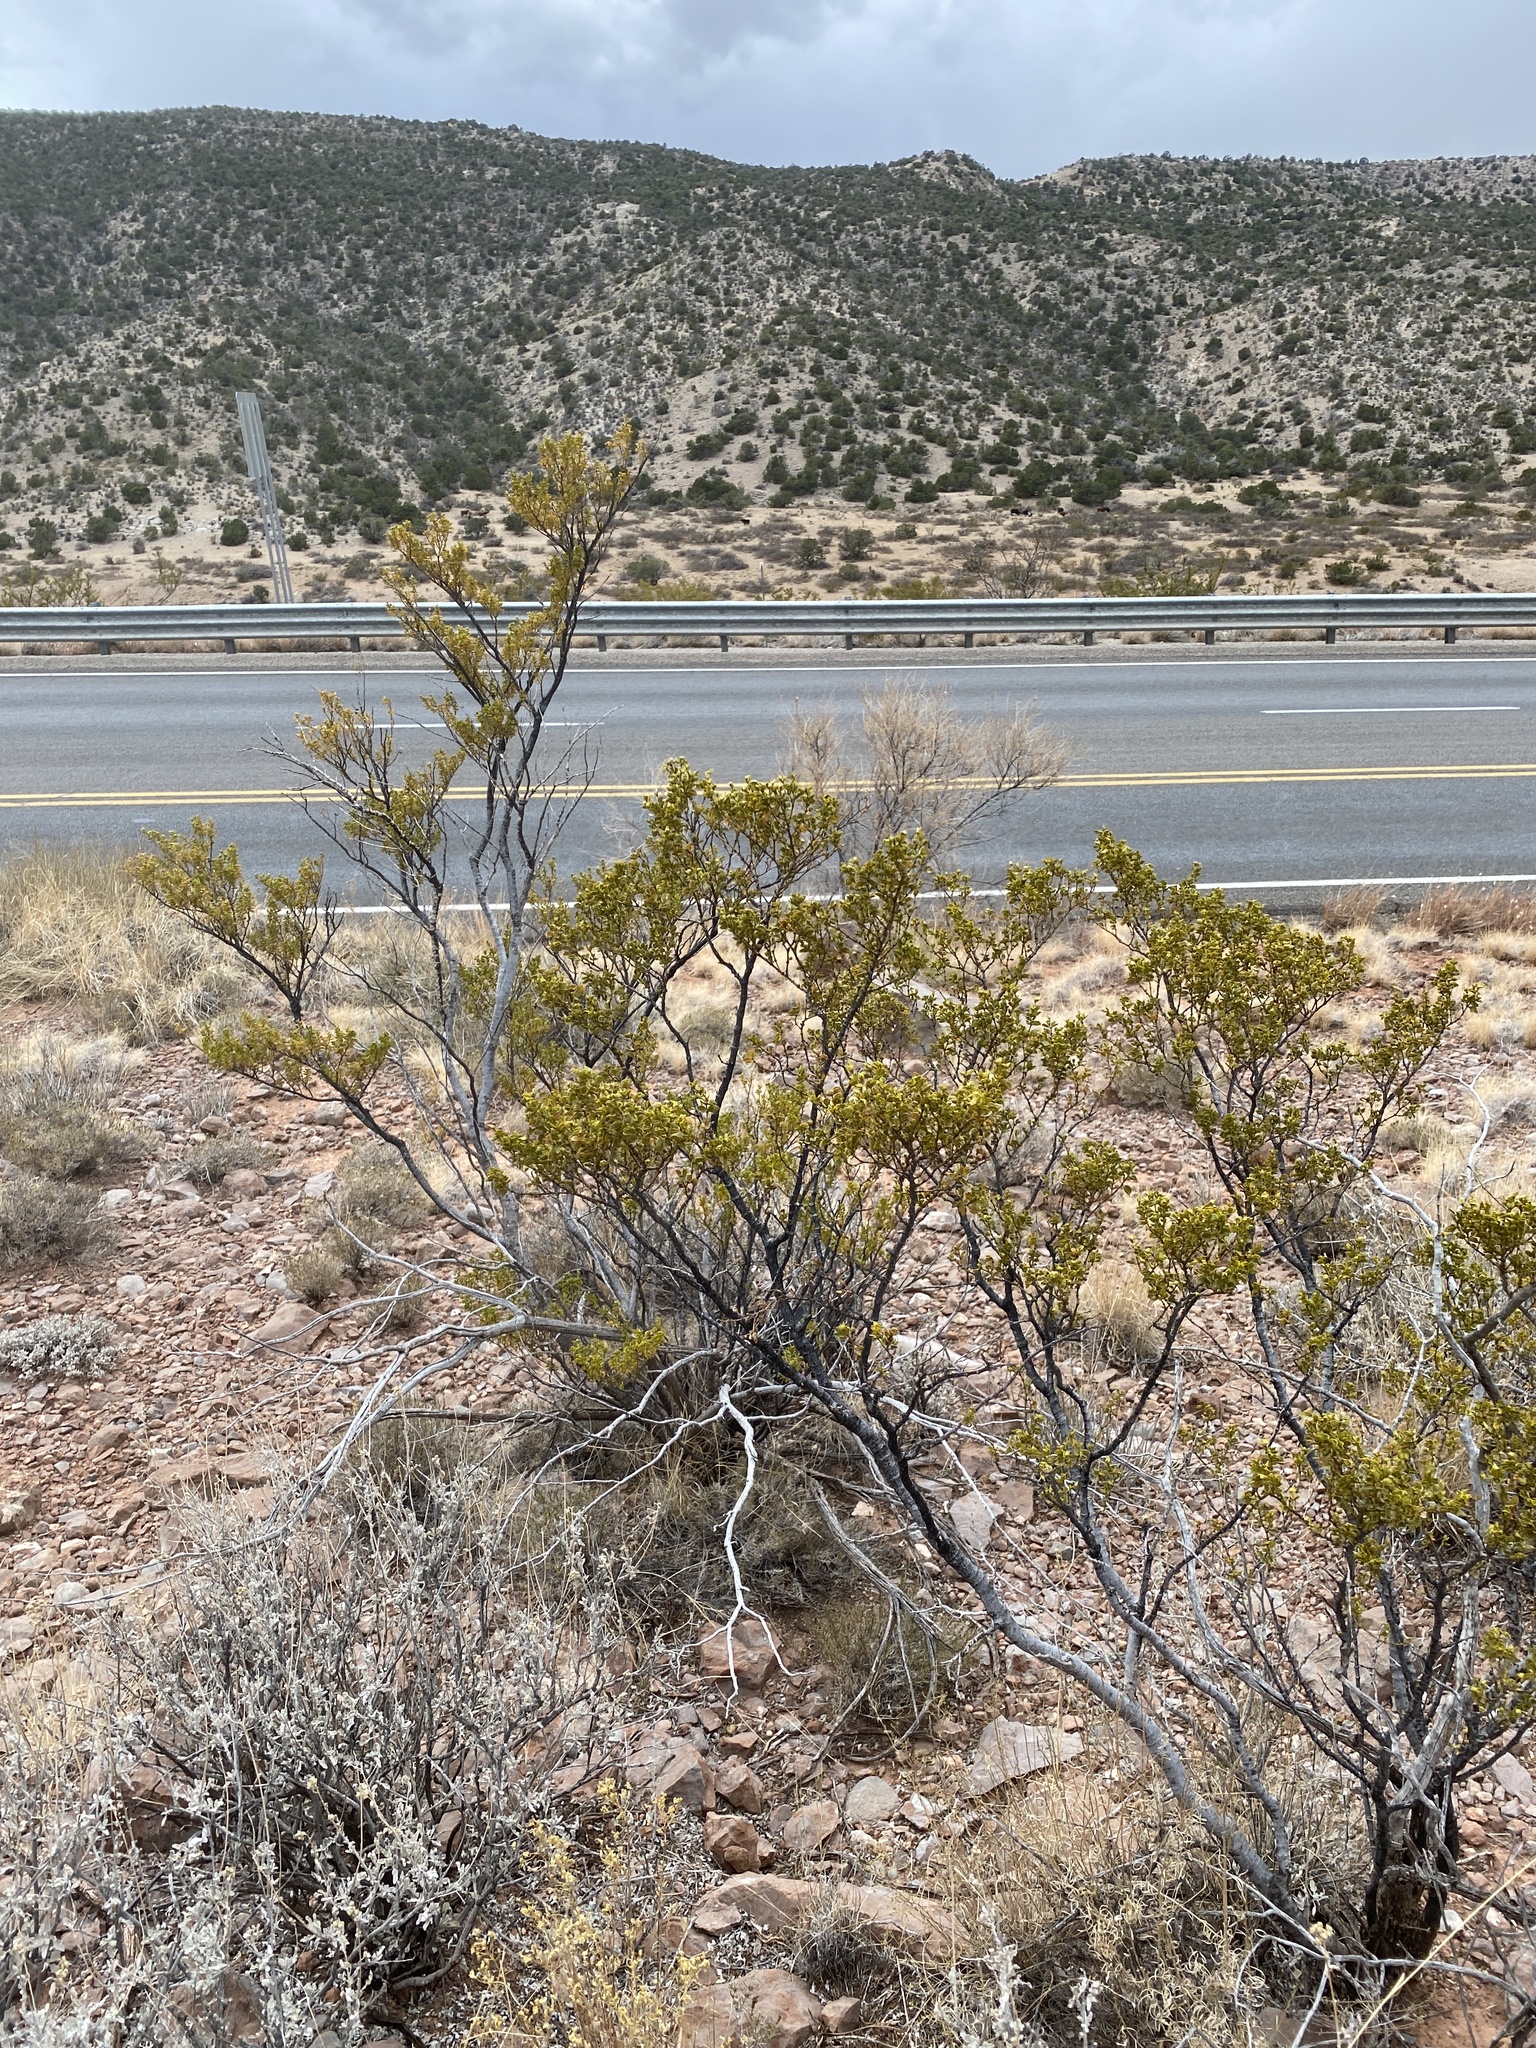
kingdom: Plantae
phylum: Tracheophyta
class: Magnoliopsida
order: Zygophyllales
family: Zygophyllaceae
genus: Larrea
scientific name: Larrea tridentata
